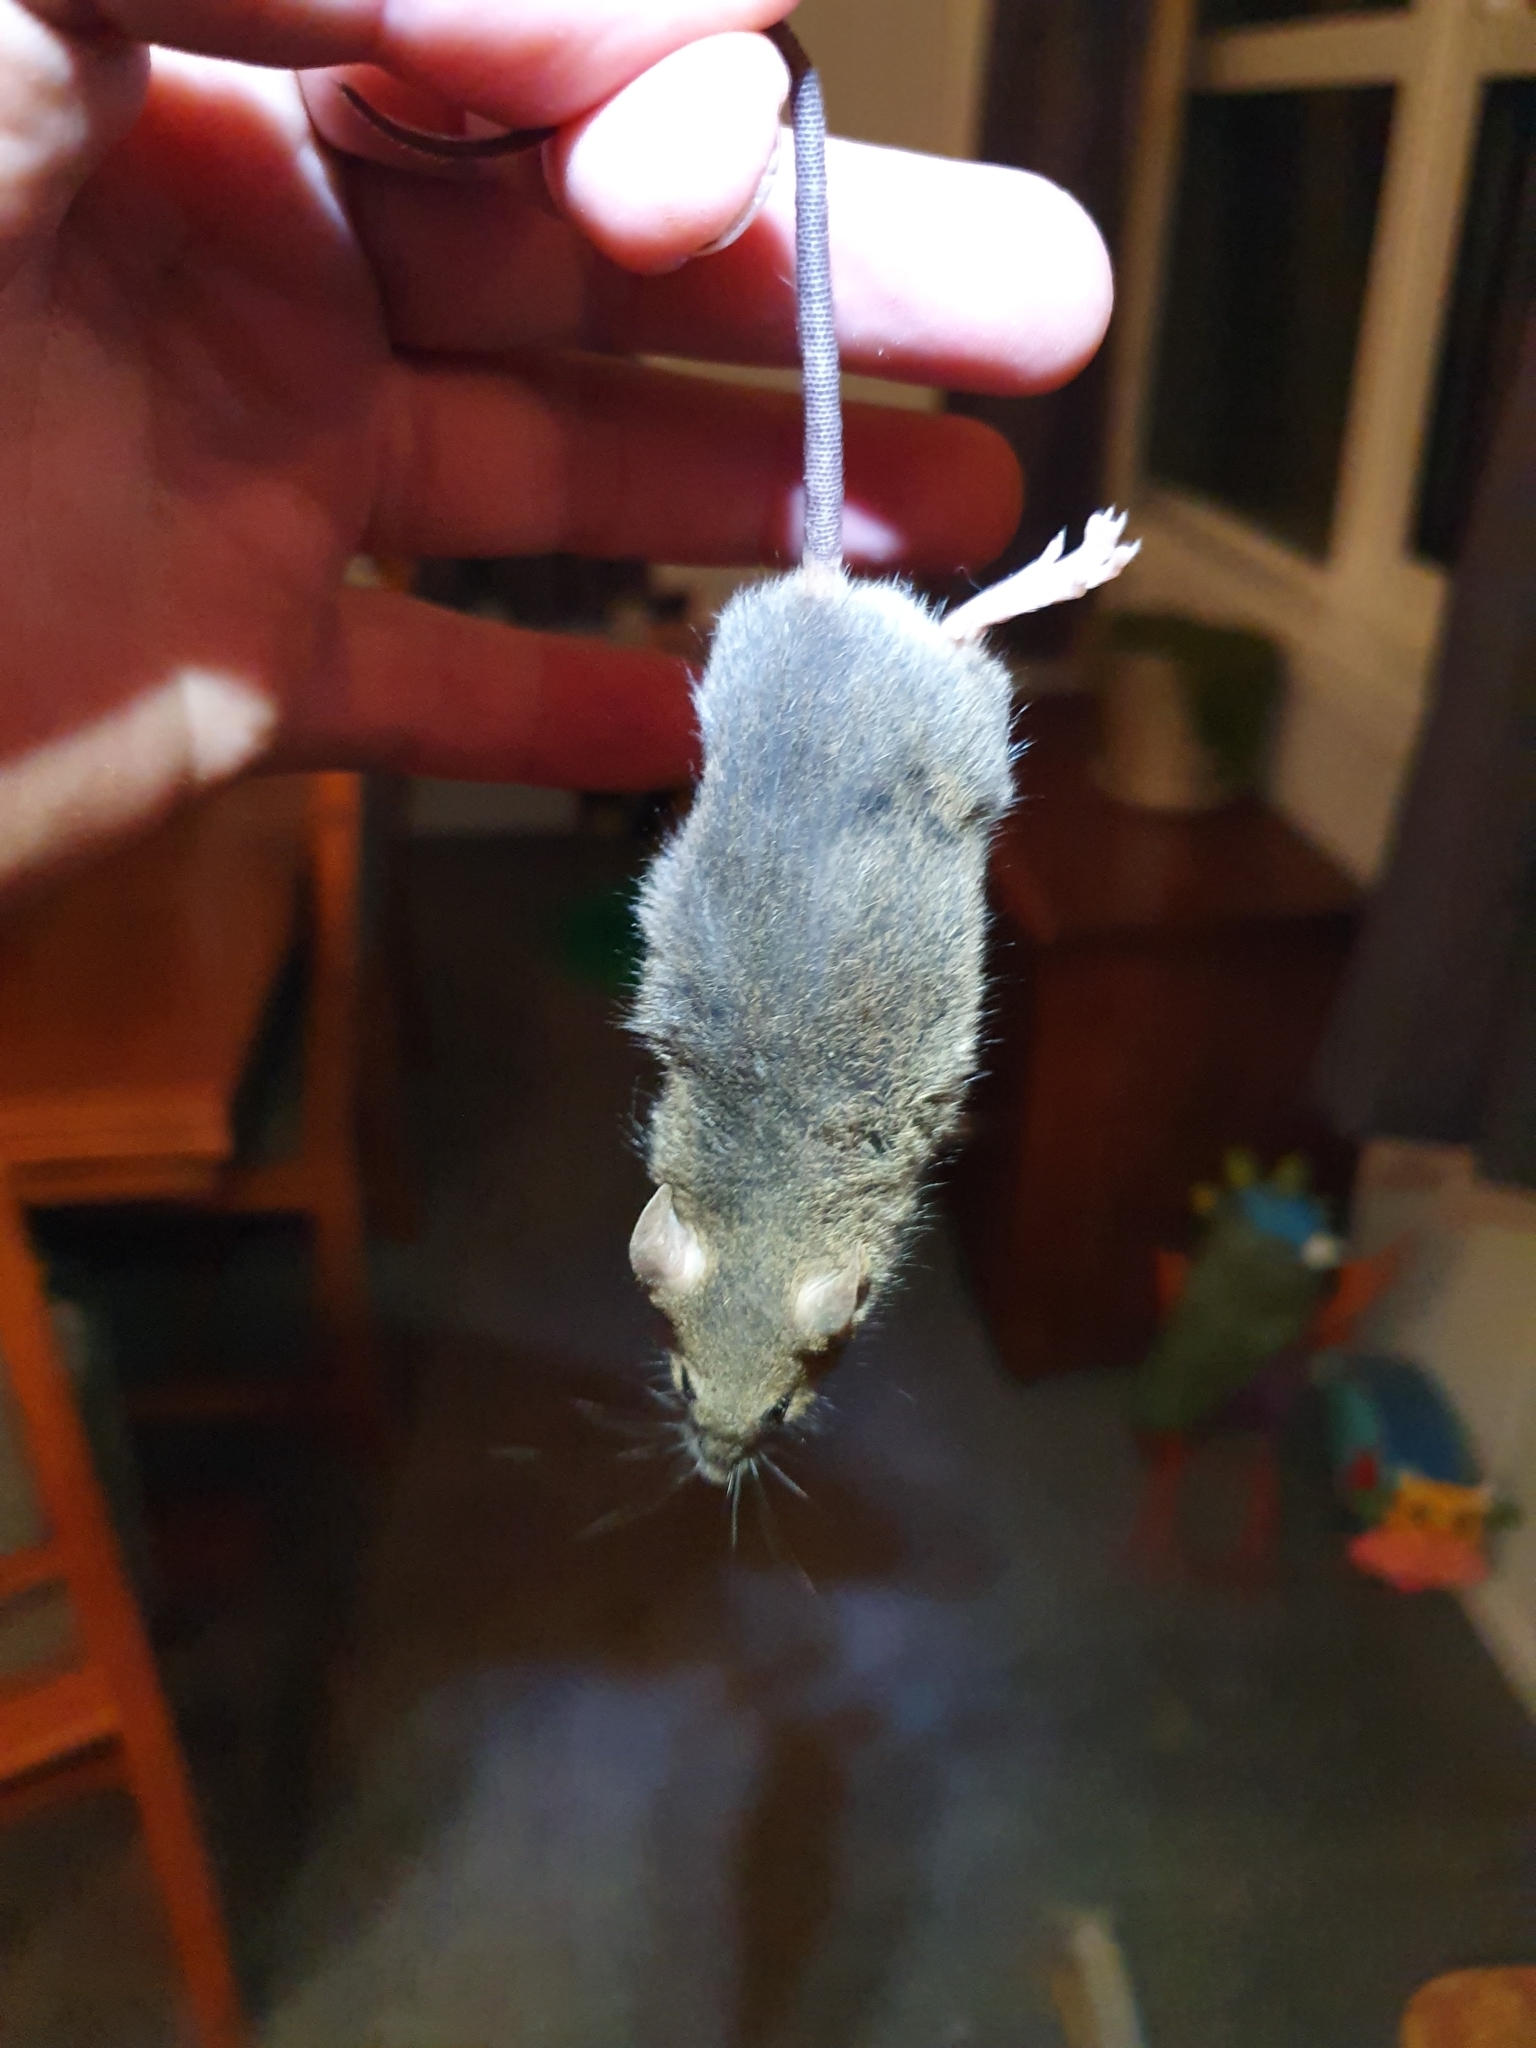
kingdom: Animalia
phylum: Chordata
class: Mammalia
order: Rodentia
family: Muridae
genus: Mus
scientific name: Mus musculus
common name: House mouse
